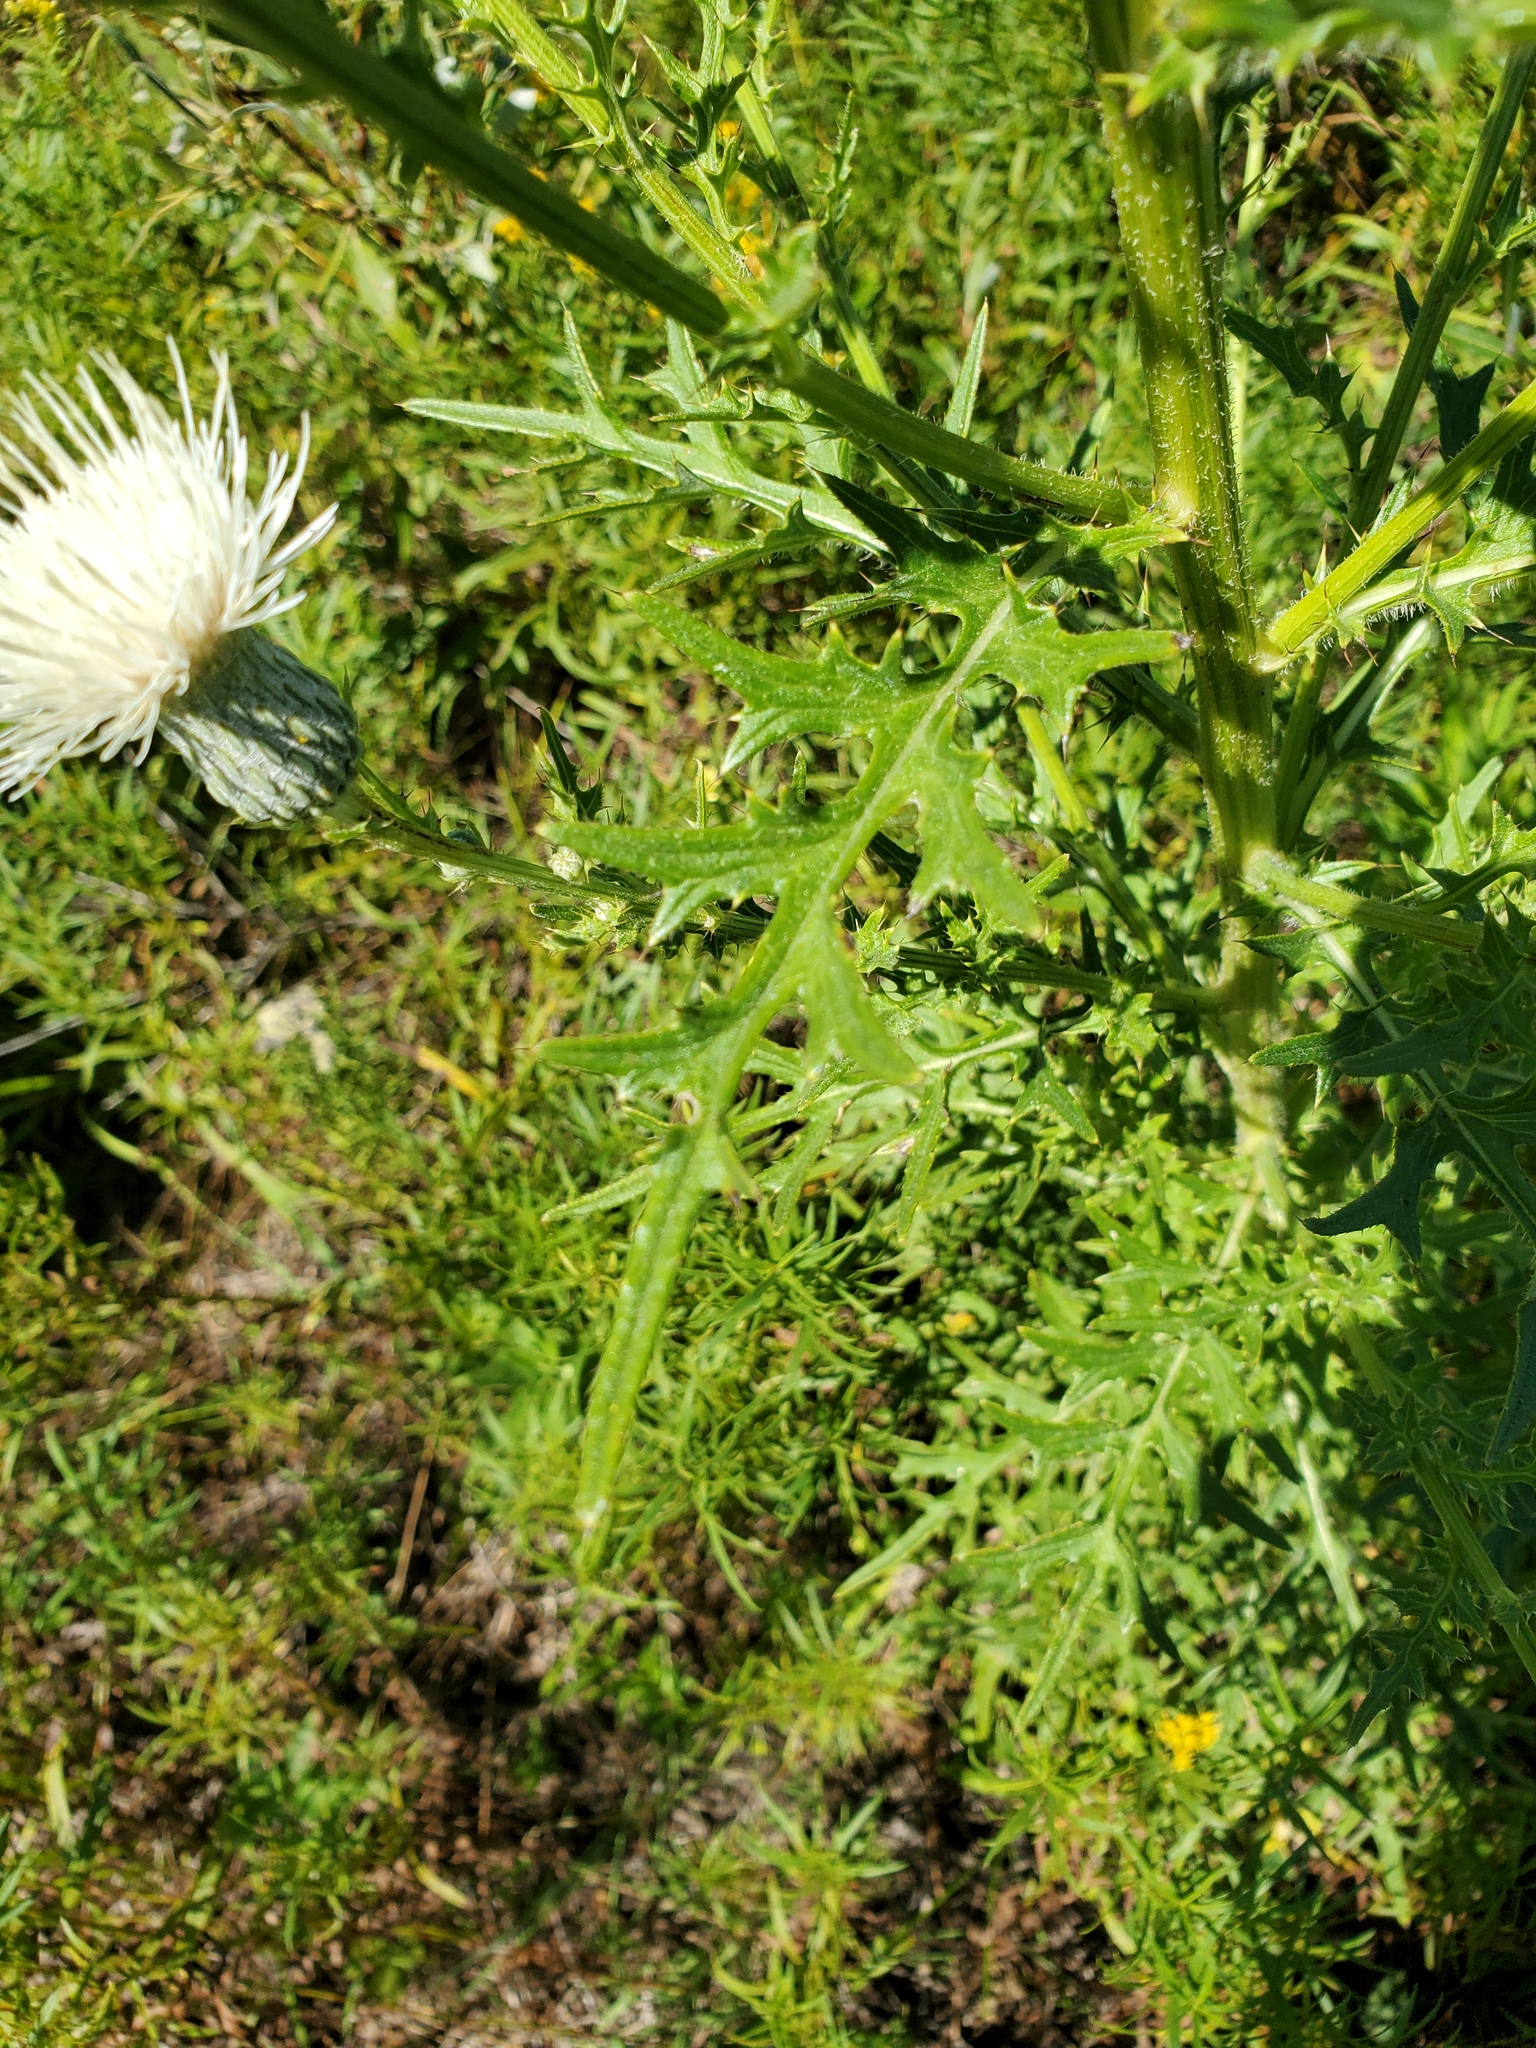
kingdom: Plantae
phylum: Tracheophyta
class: Magnoliopsida
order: Asterales
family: Asteraceae
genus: Cirsium
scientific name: Cirsium muticum
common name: Dunce-nettle
